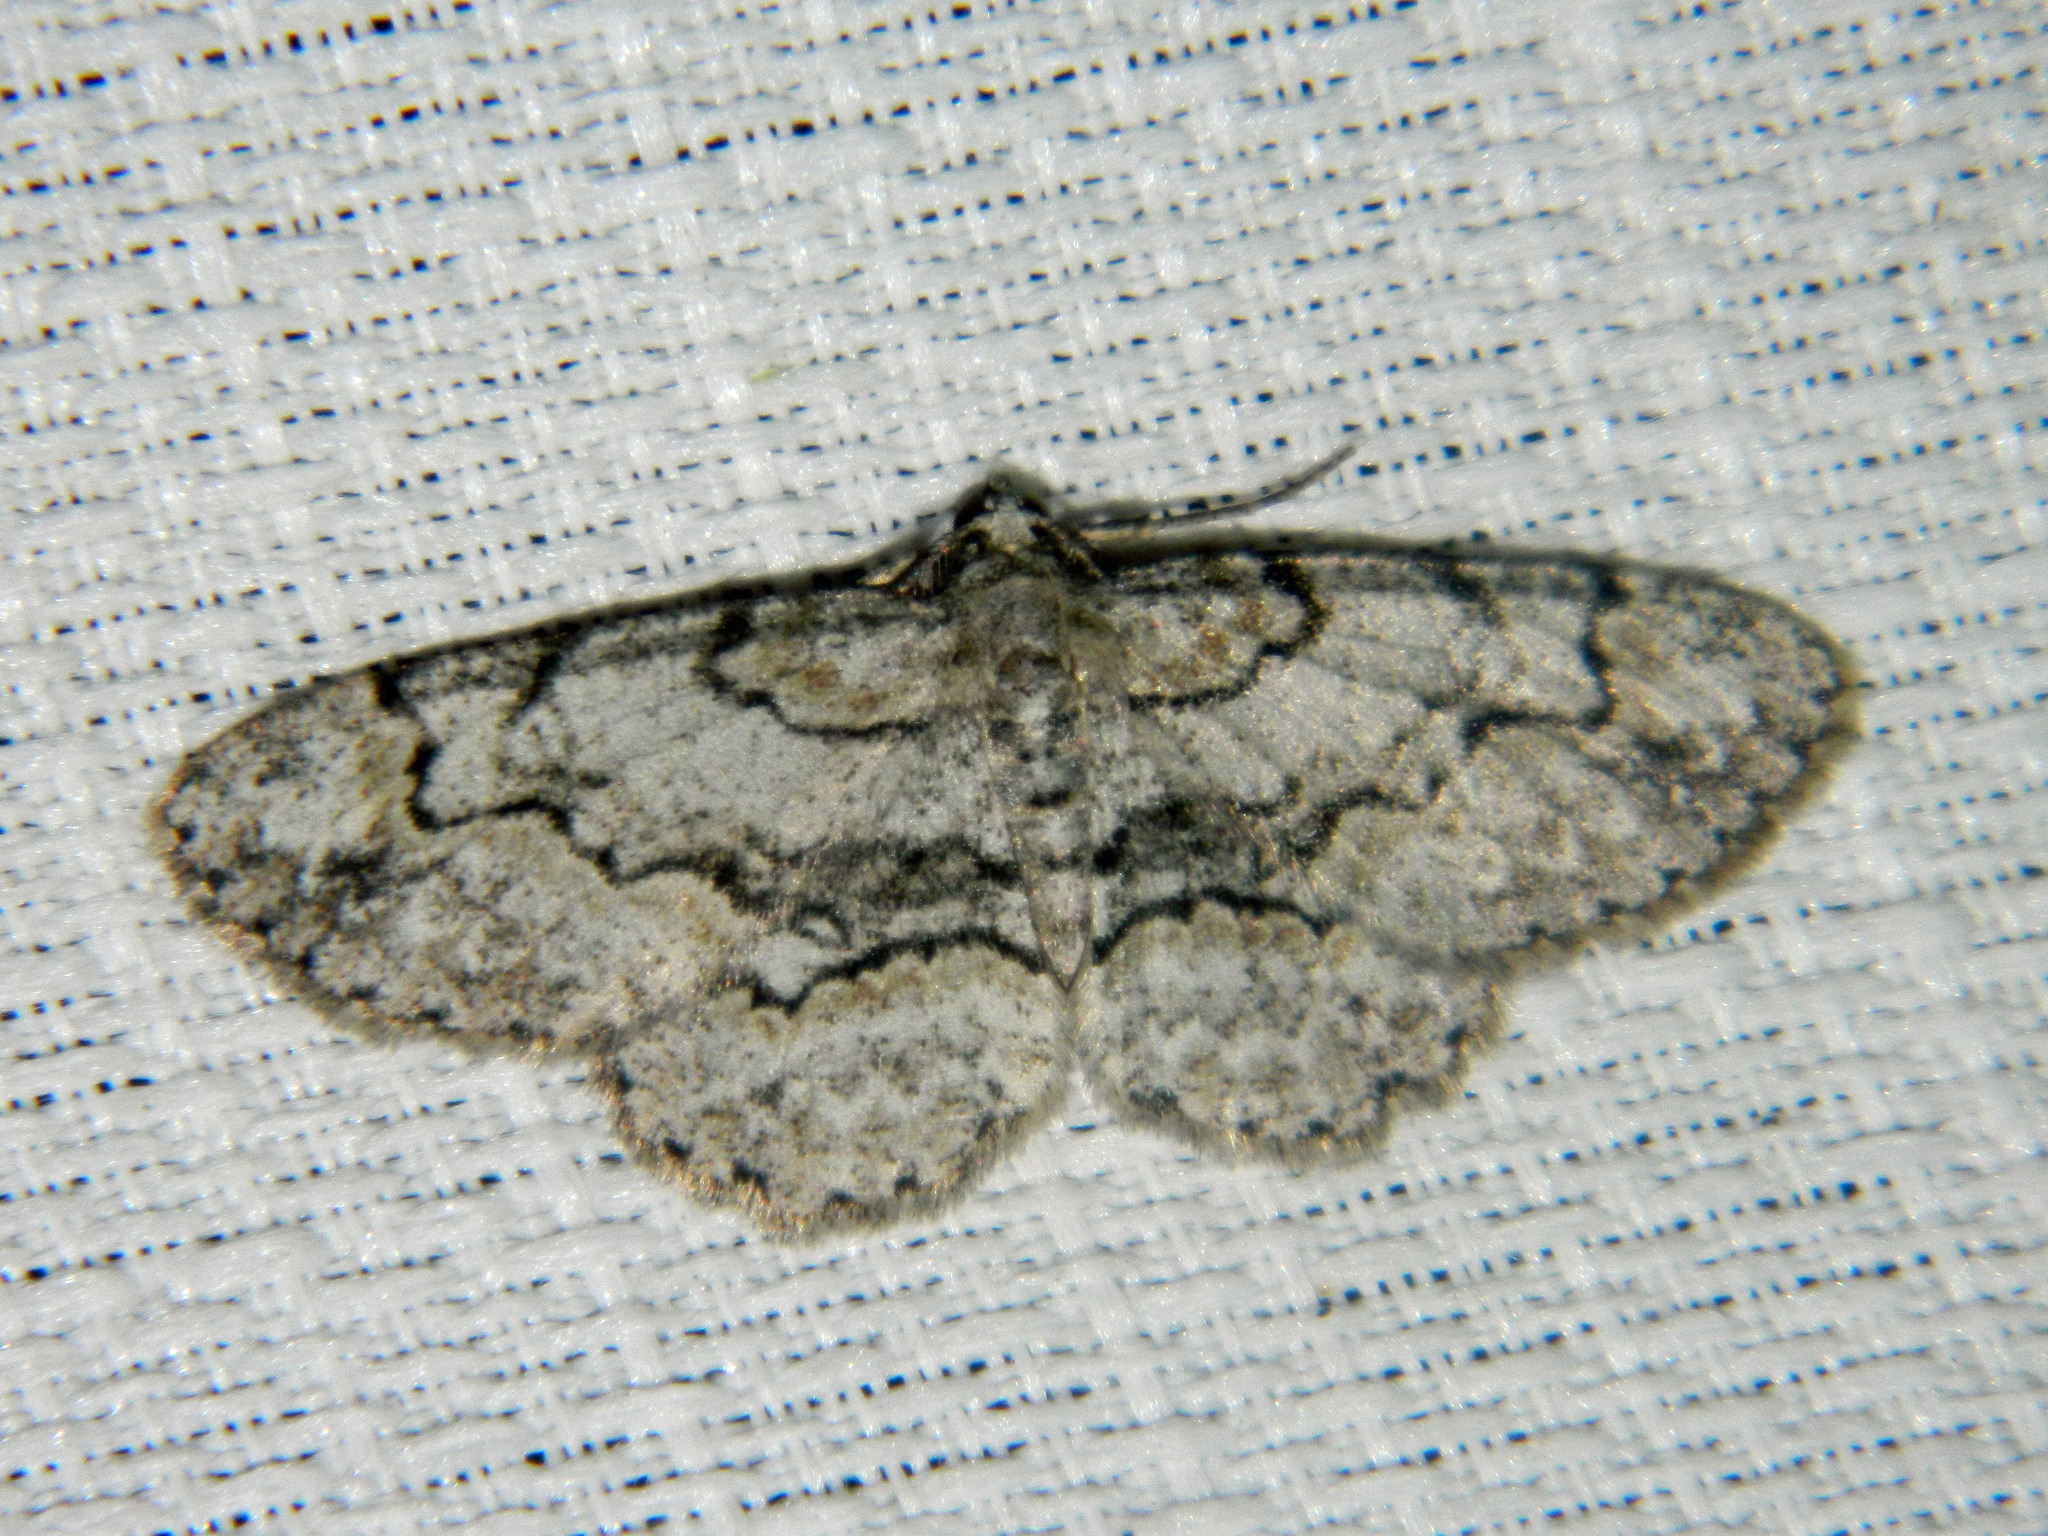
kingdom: Animalia
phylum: Arthropoda
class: Insecta
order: Lepidoptera
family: Geometridae
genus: Iridopsis
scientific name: Iridopsis ephyraria
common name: Pale-winged gray
